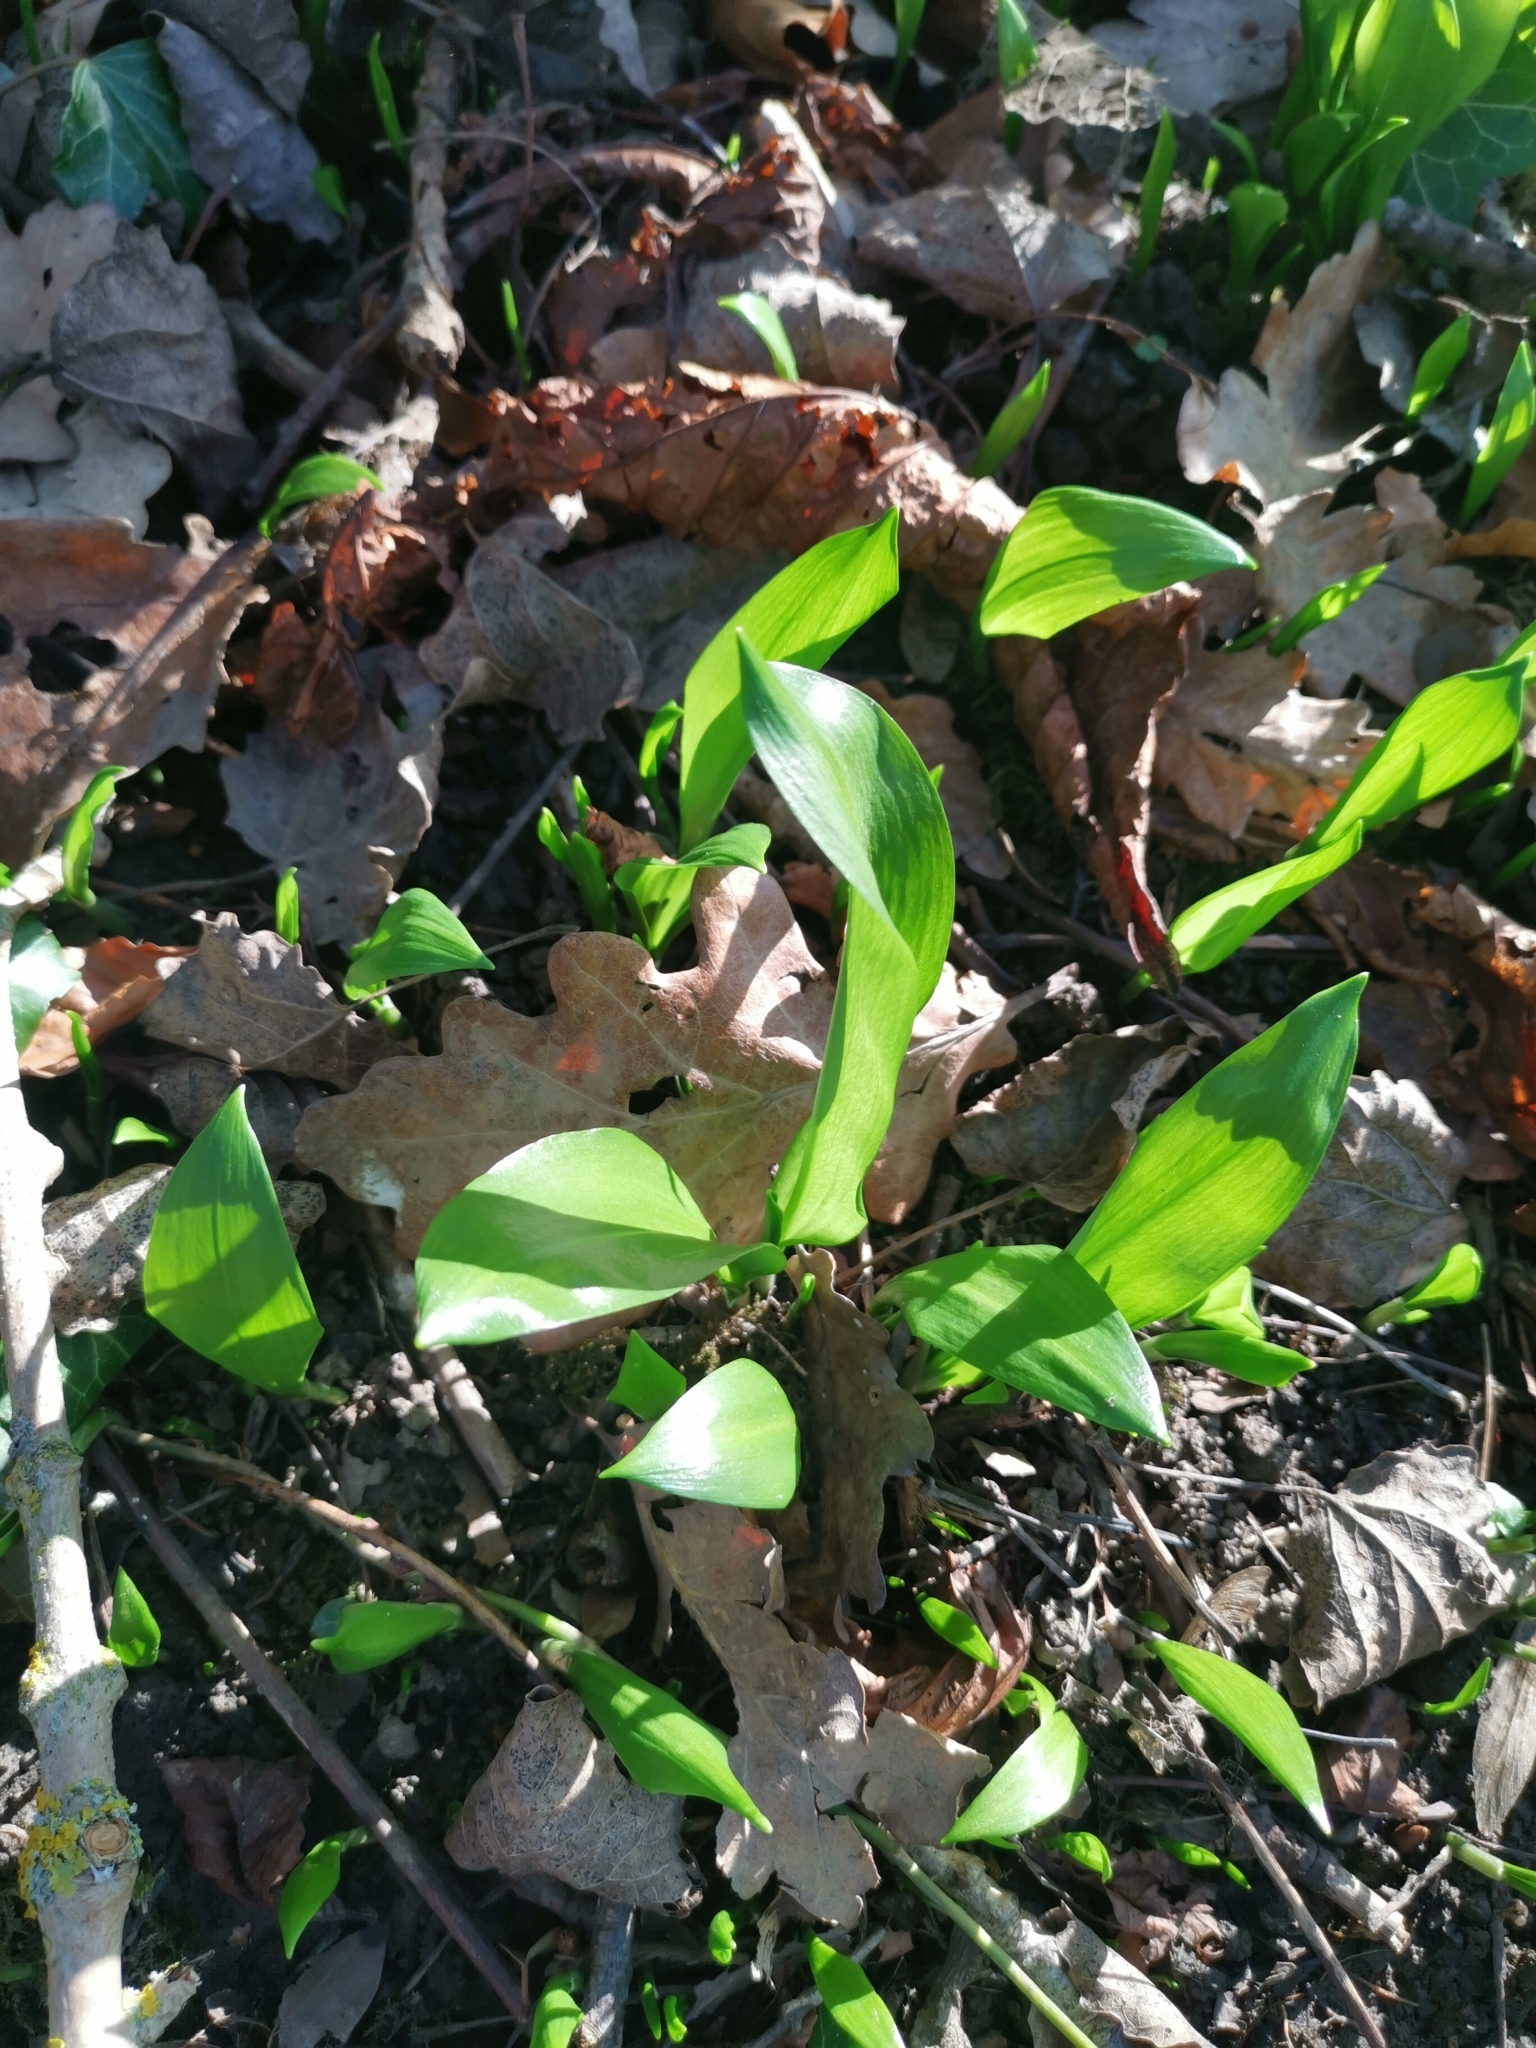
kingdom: Plantae
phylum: Tracheophyta
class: Liliopsida
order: Asparagales
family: Amaryllidaceae
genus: Allium
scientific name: Allium ursinum
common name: Ramsons
